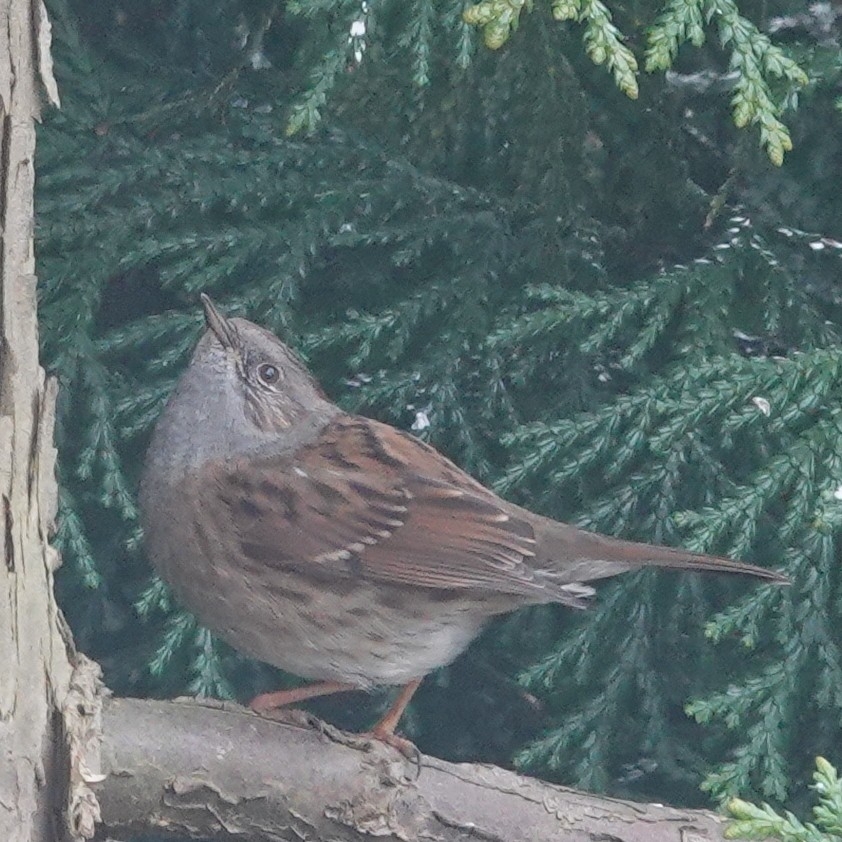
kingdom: Animalia
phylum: Chordata
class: Aves
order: Passeriformes
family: Prunellidae
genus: Prunella
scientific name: Prunella modularis
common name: Dunnock
